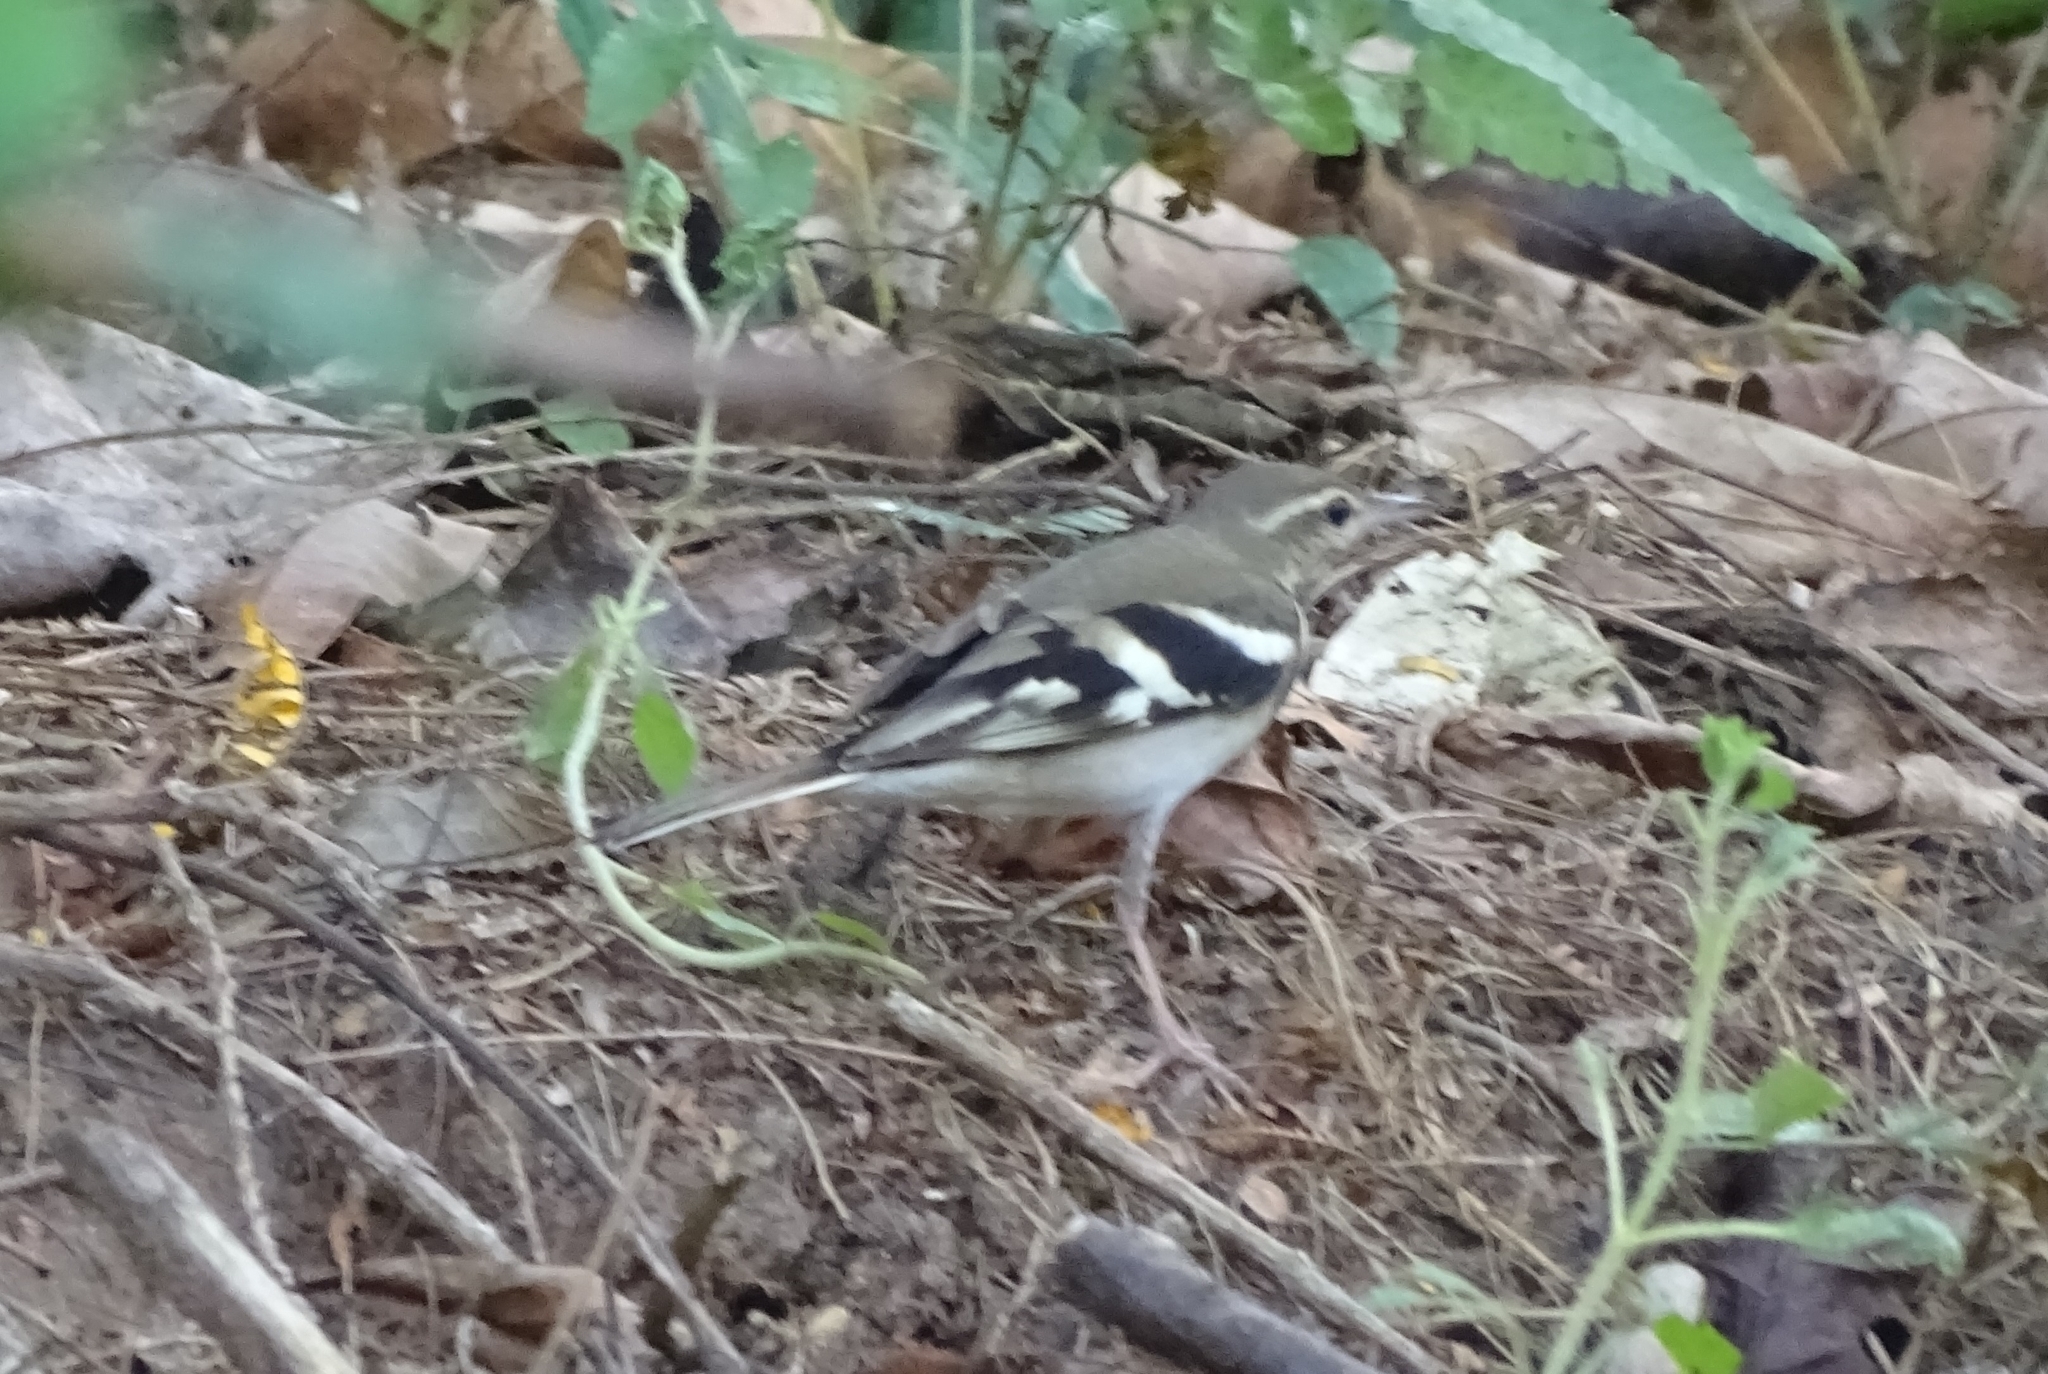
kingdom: Animalia
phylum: Chordata
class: Aves
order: Passeriformes
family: Motacillidae
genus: Dendronanthus
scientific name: Dendronanthus indicus
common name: Forest wagtail
